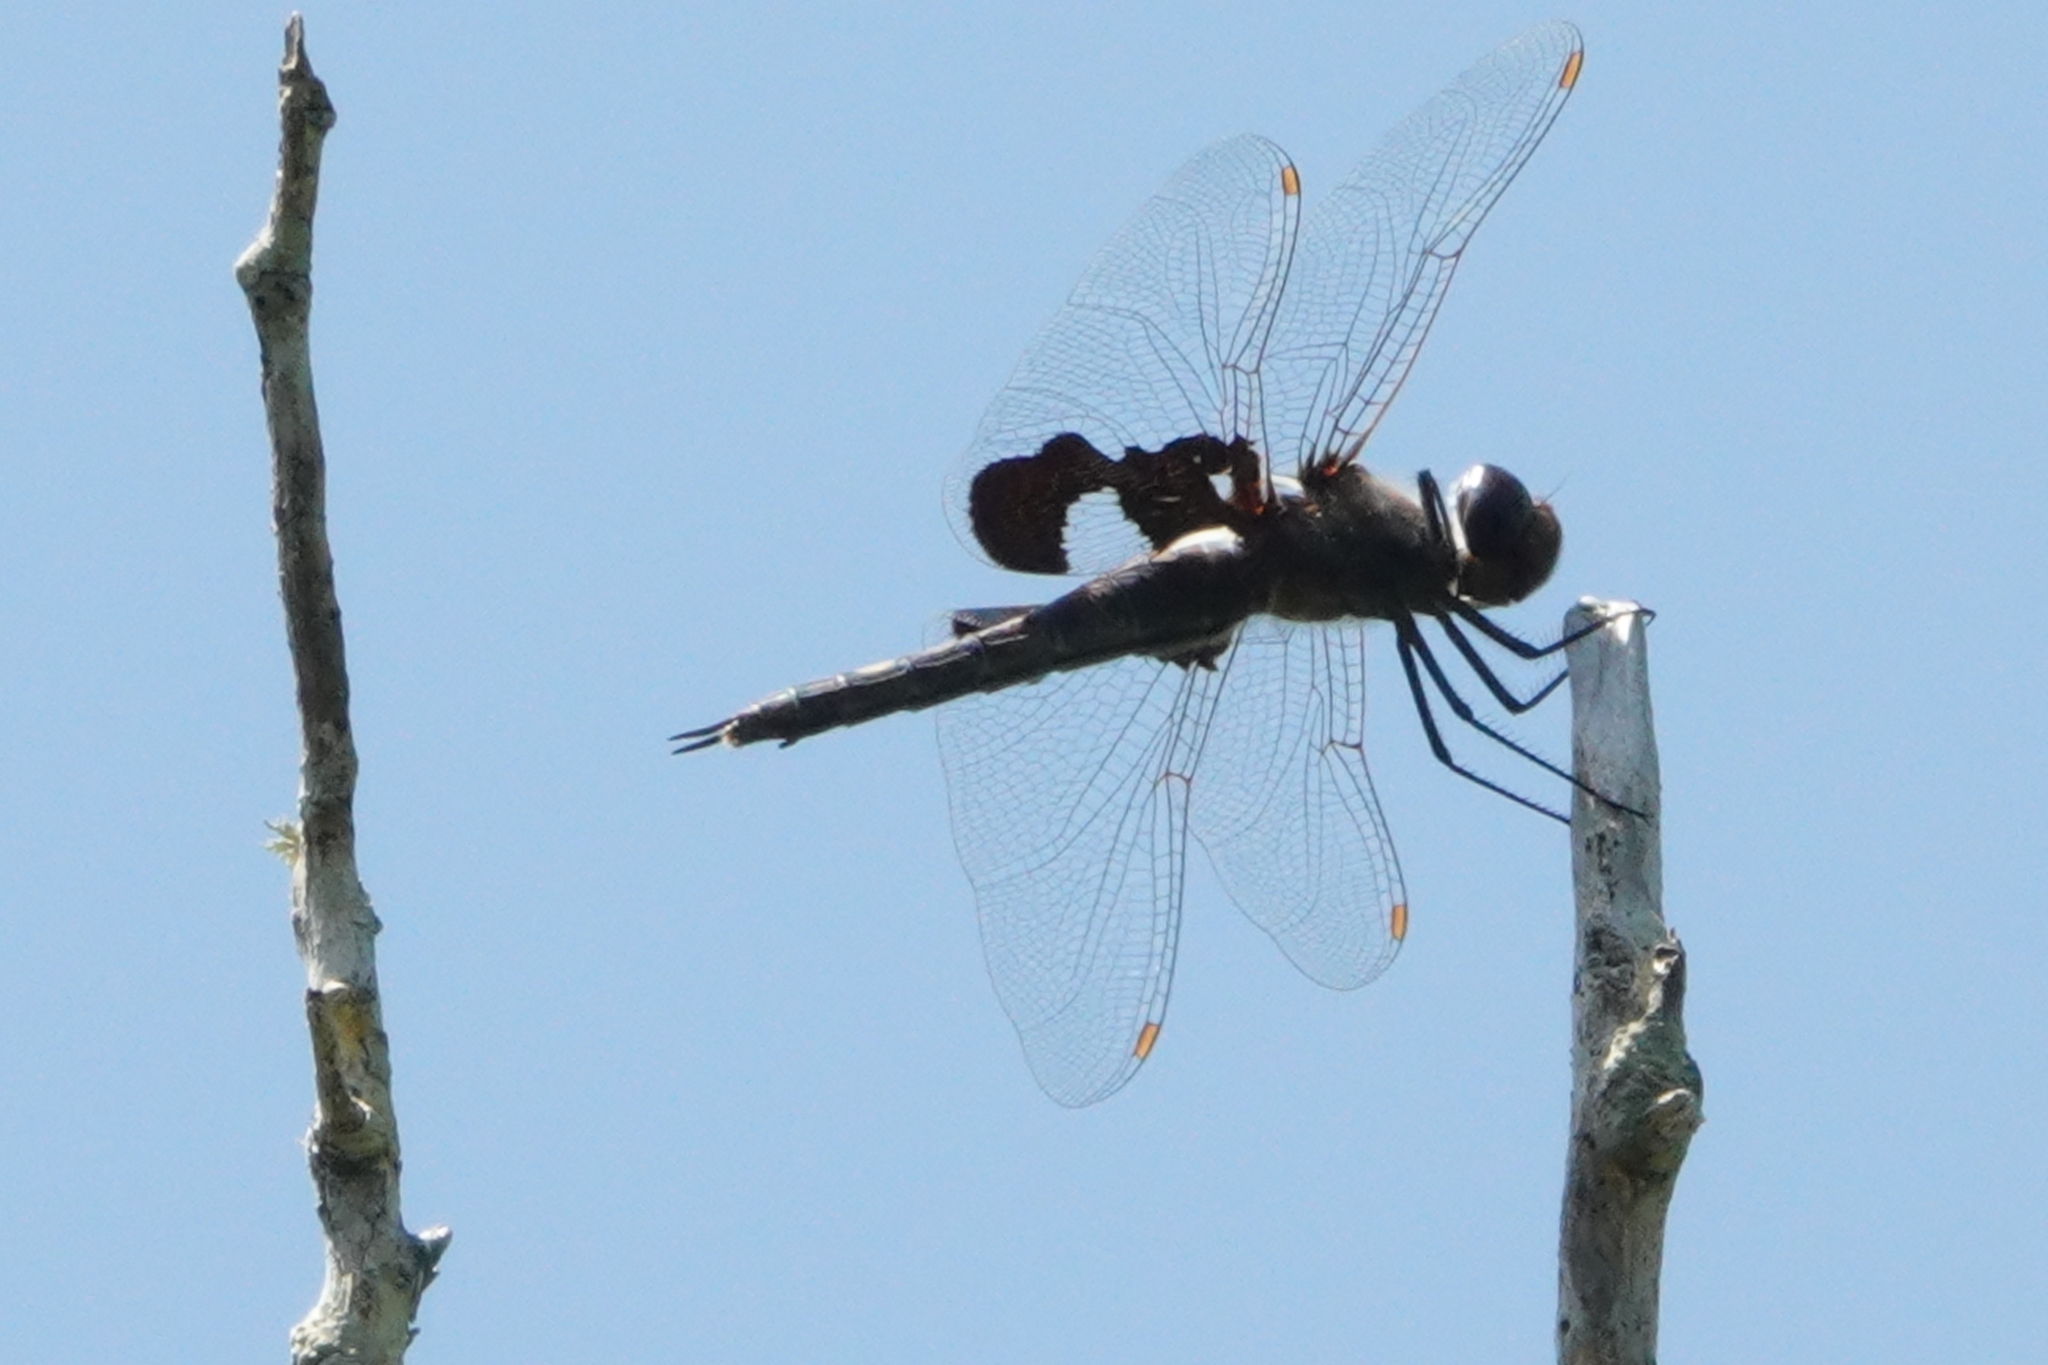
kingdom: Animalia
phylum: Arthropoda
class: Insecta
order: Odonata
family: Libellulidae
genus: Tramea
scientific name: Tramea lacerata
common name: Black saddlebags
